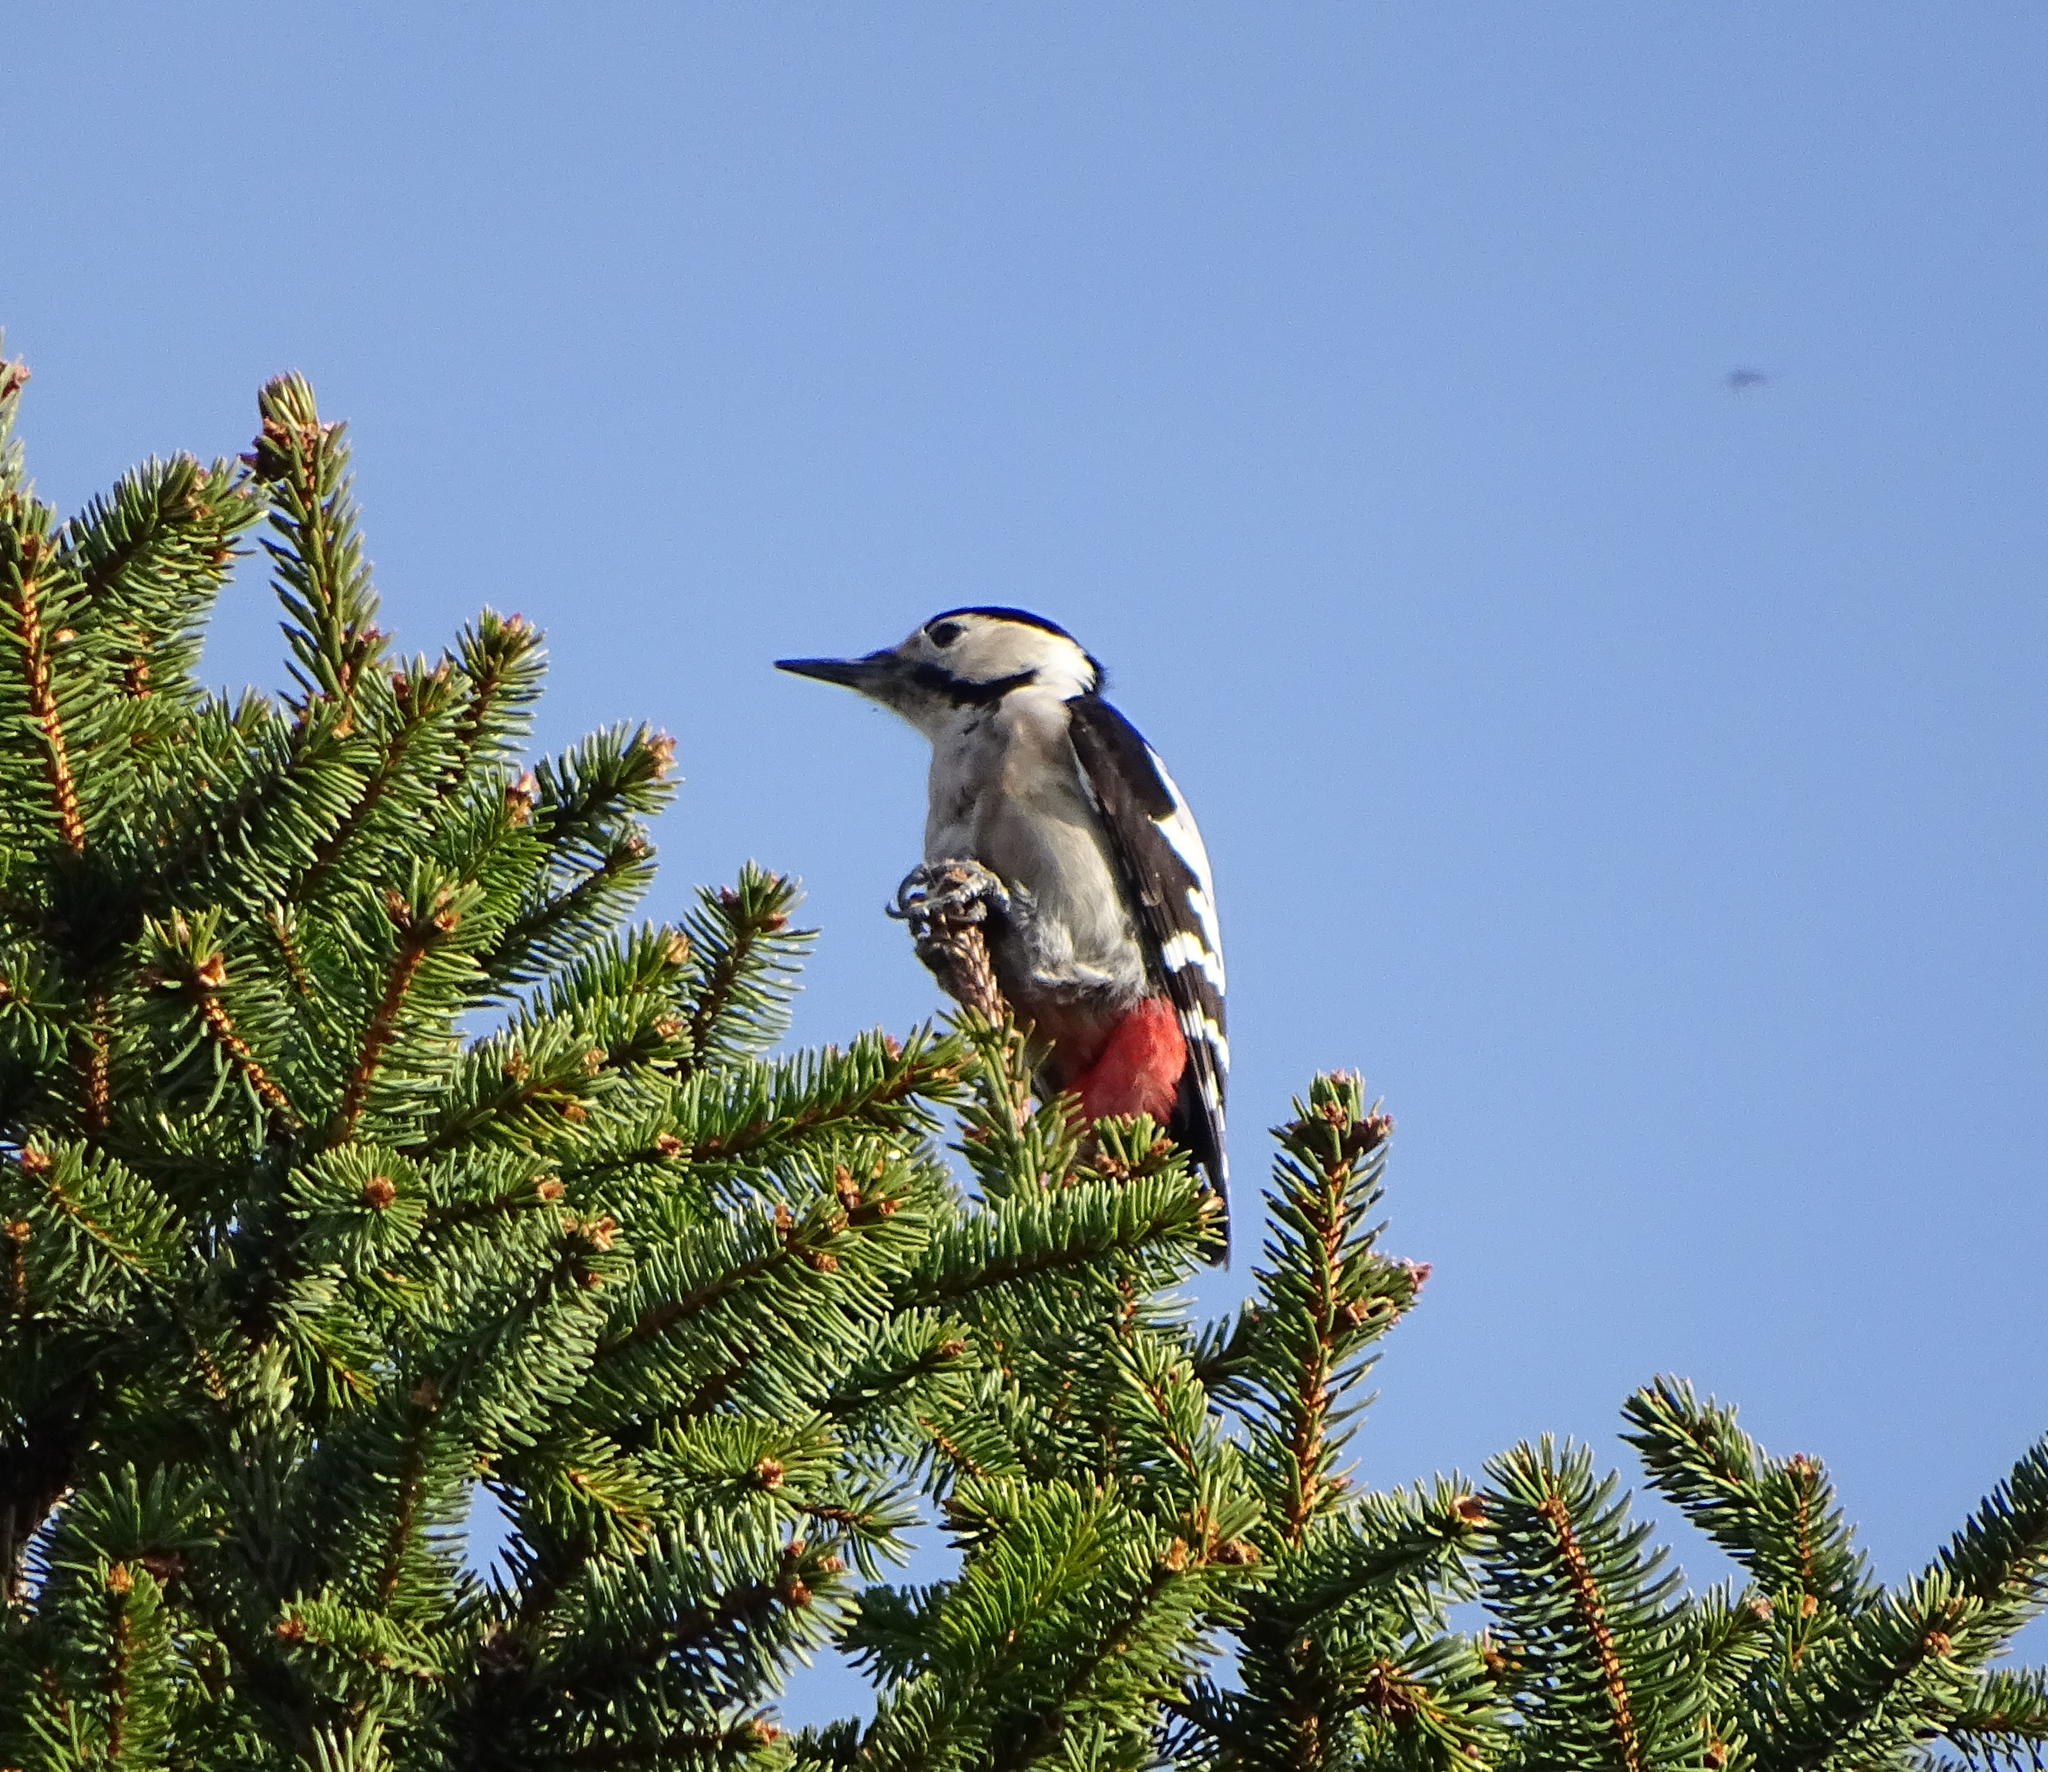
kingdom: Animalia
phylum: Chordata
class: Aves
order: Piciformes
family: Picidae
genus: Dendrocopos
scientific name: Dendrocopos syriacus
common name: Syrian woodpecker
